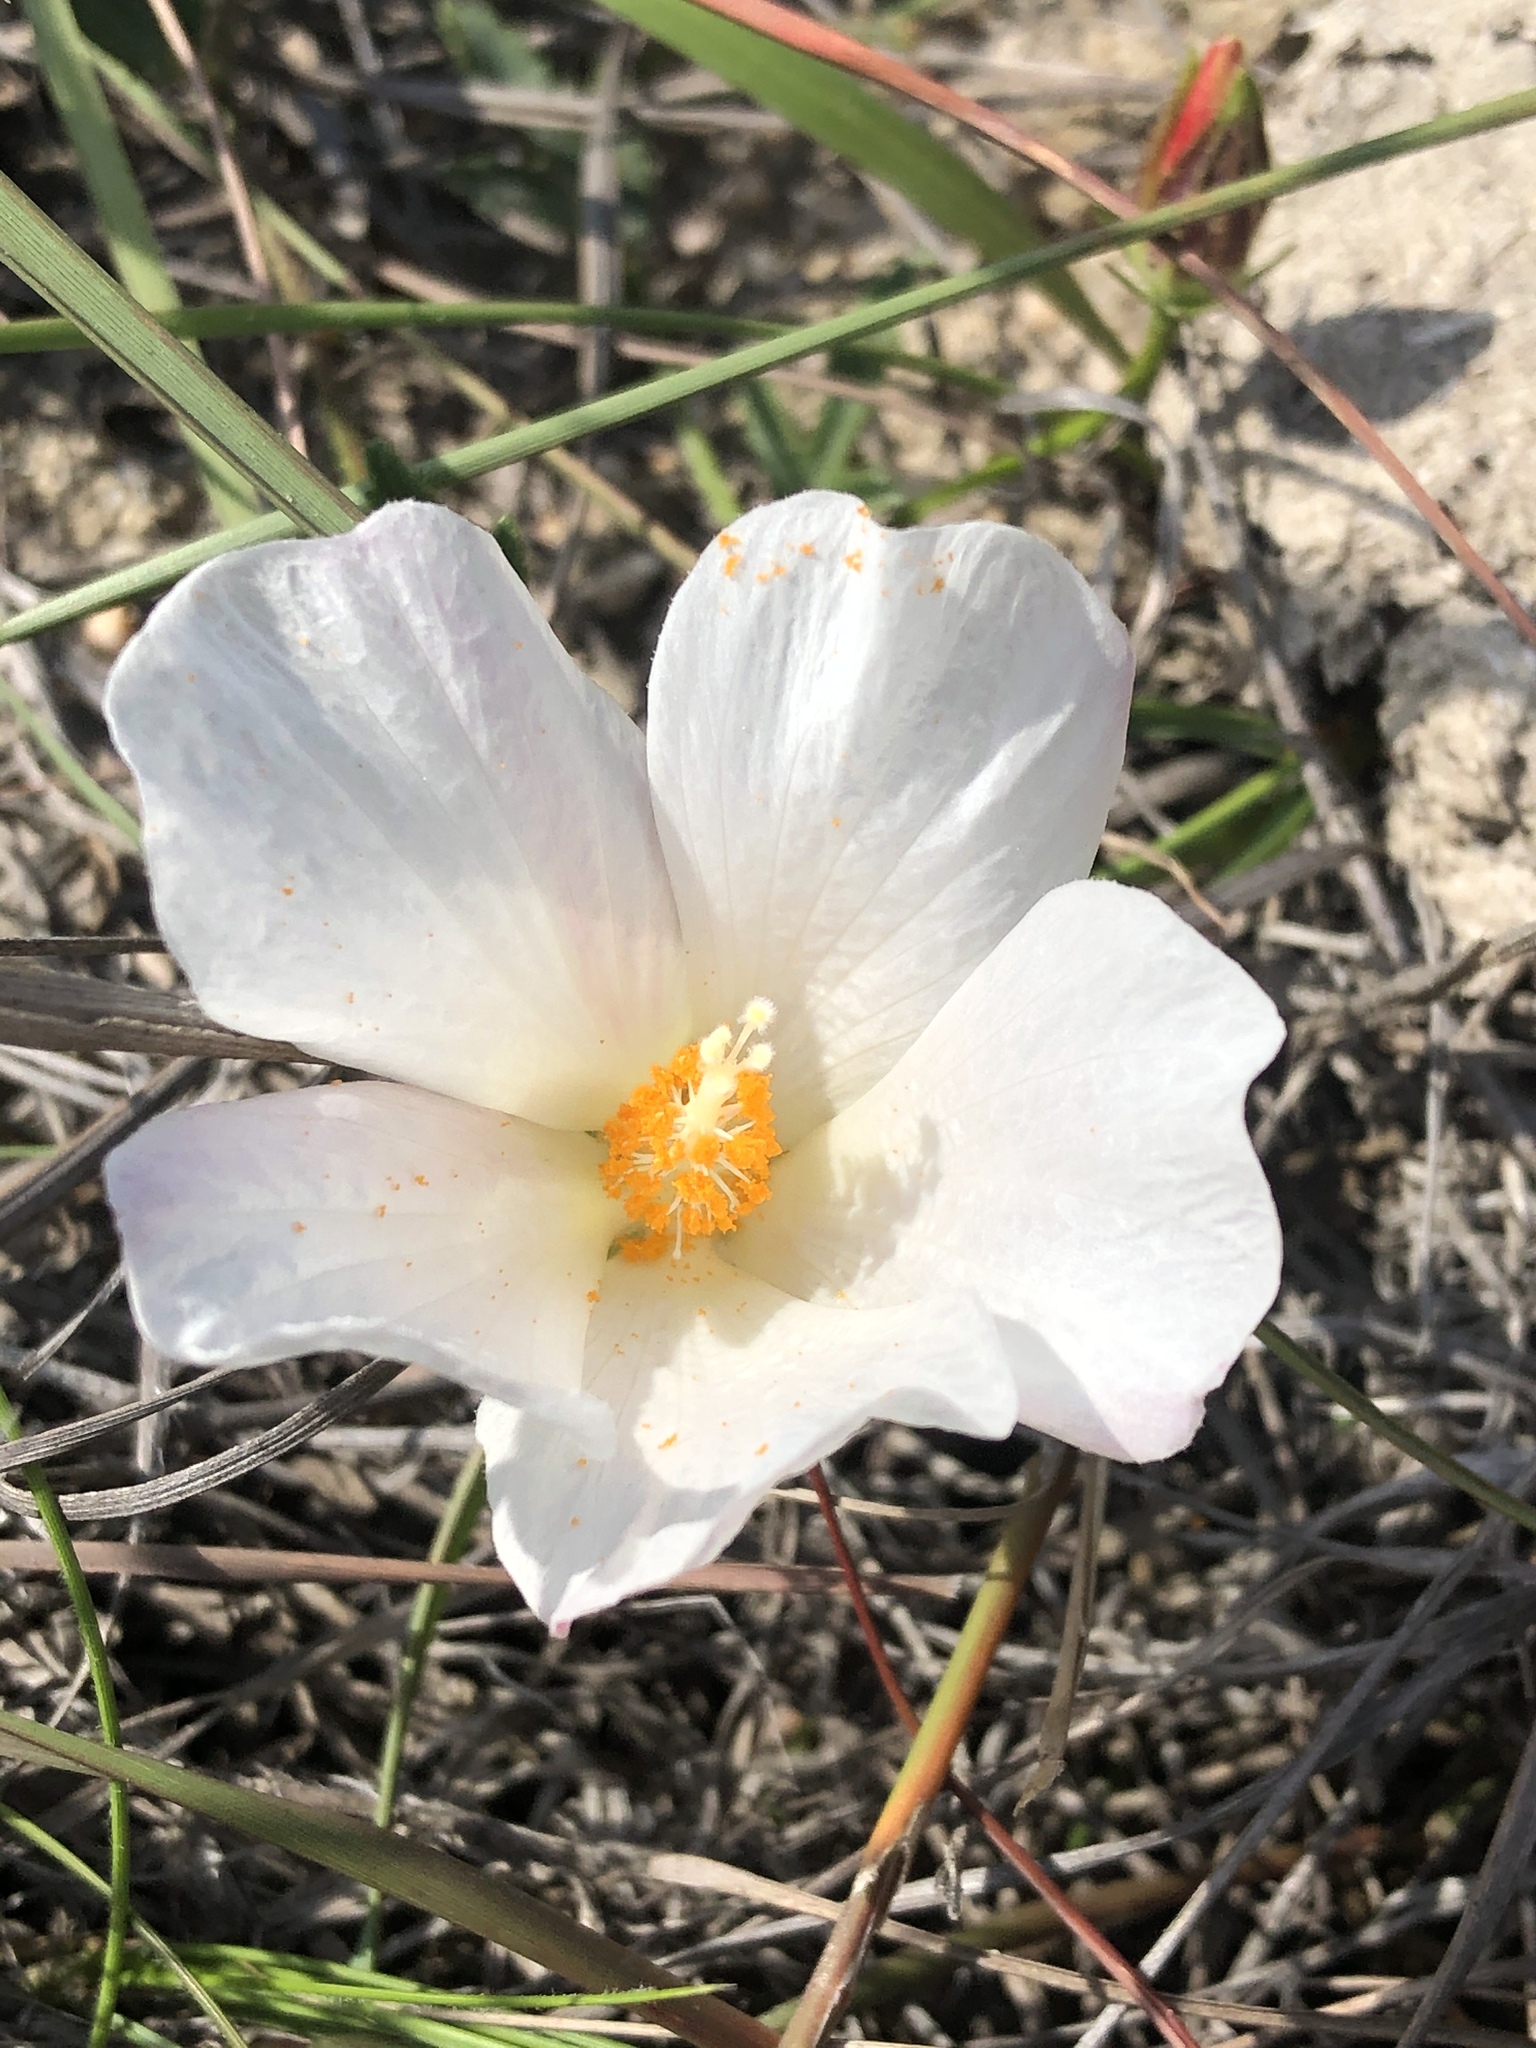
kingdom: Plantae
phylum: Tracheophyta
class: Magnoliopsida
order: Malvales
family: Malvaceae
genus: Hibiscus
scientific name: Hibiscus pusillus
